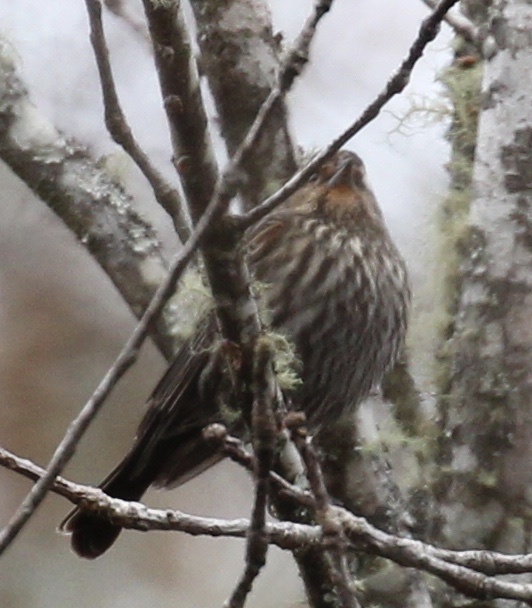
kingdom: Animalia
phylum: Chordata
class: Aves
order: Passeriformes
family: Icteridae
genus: Agelaius
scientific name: Agelaius phoeniceus
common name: Red-winged blackbird
